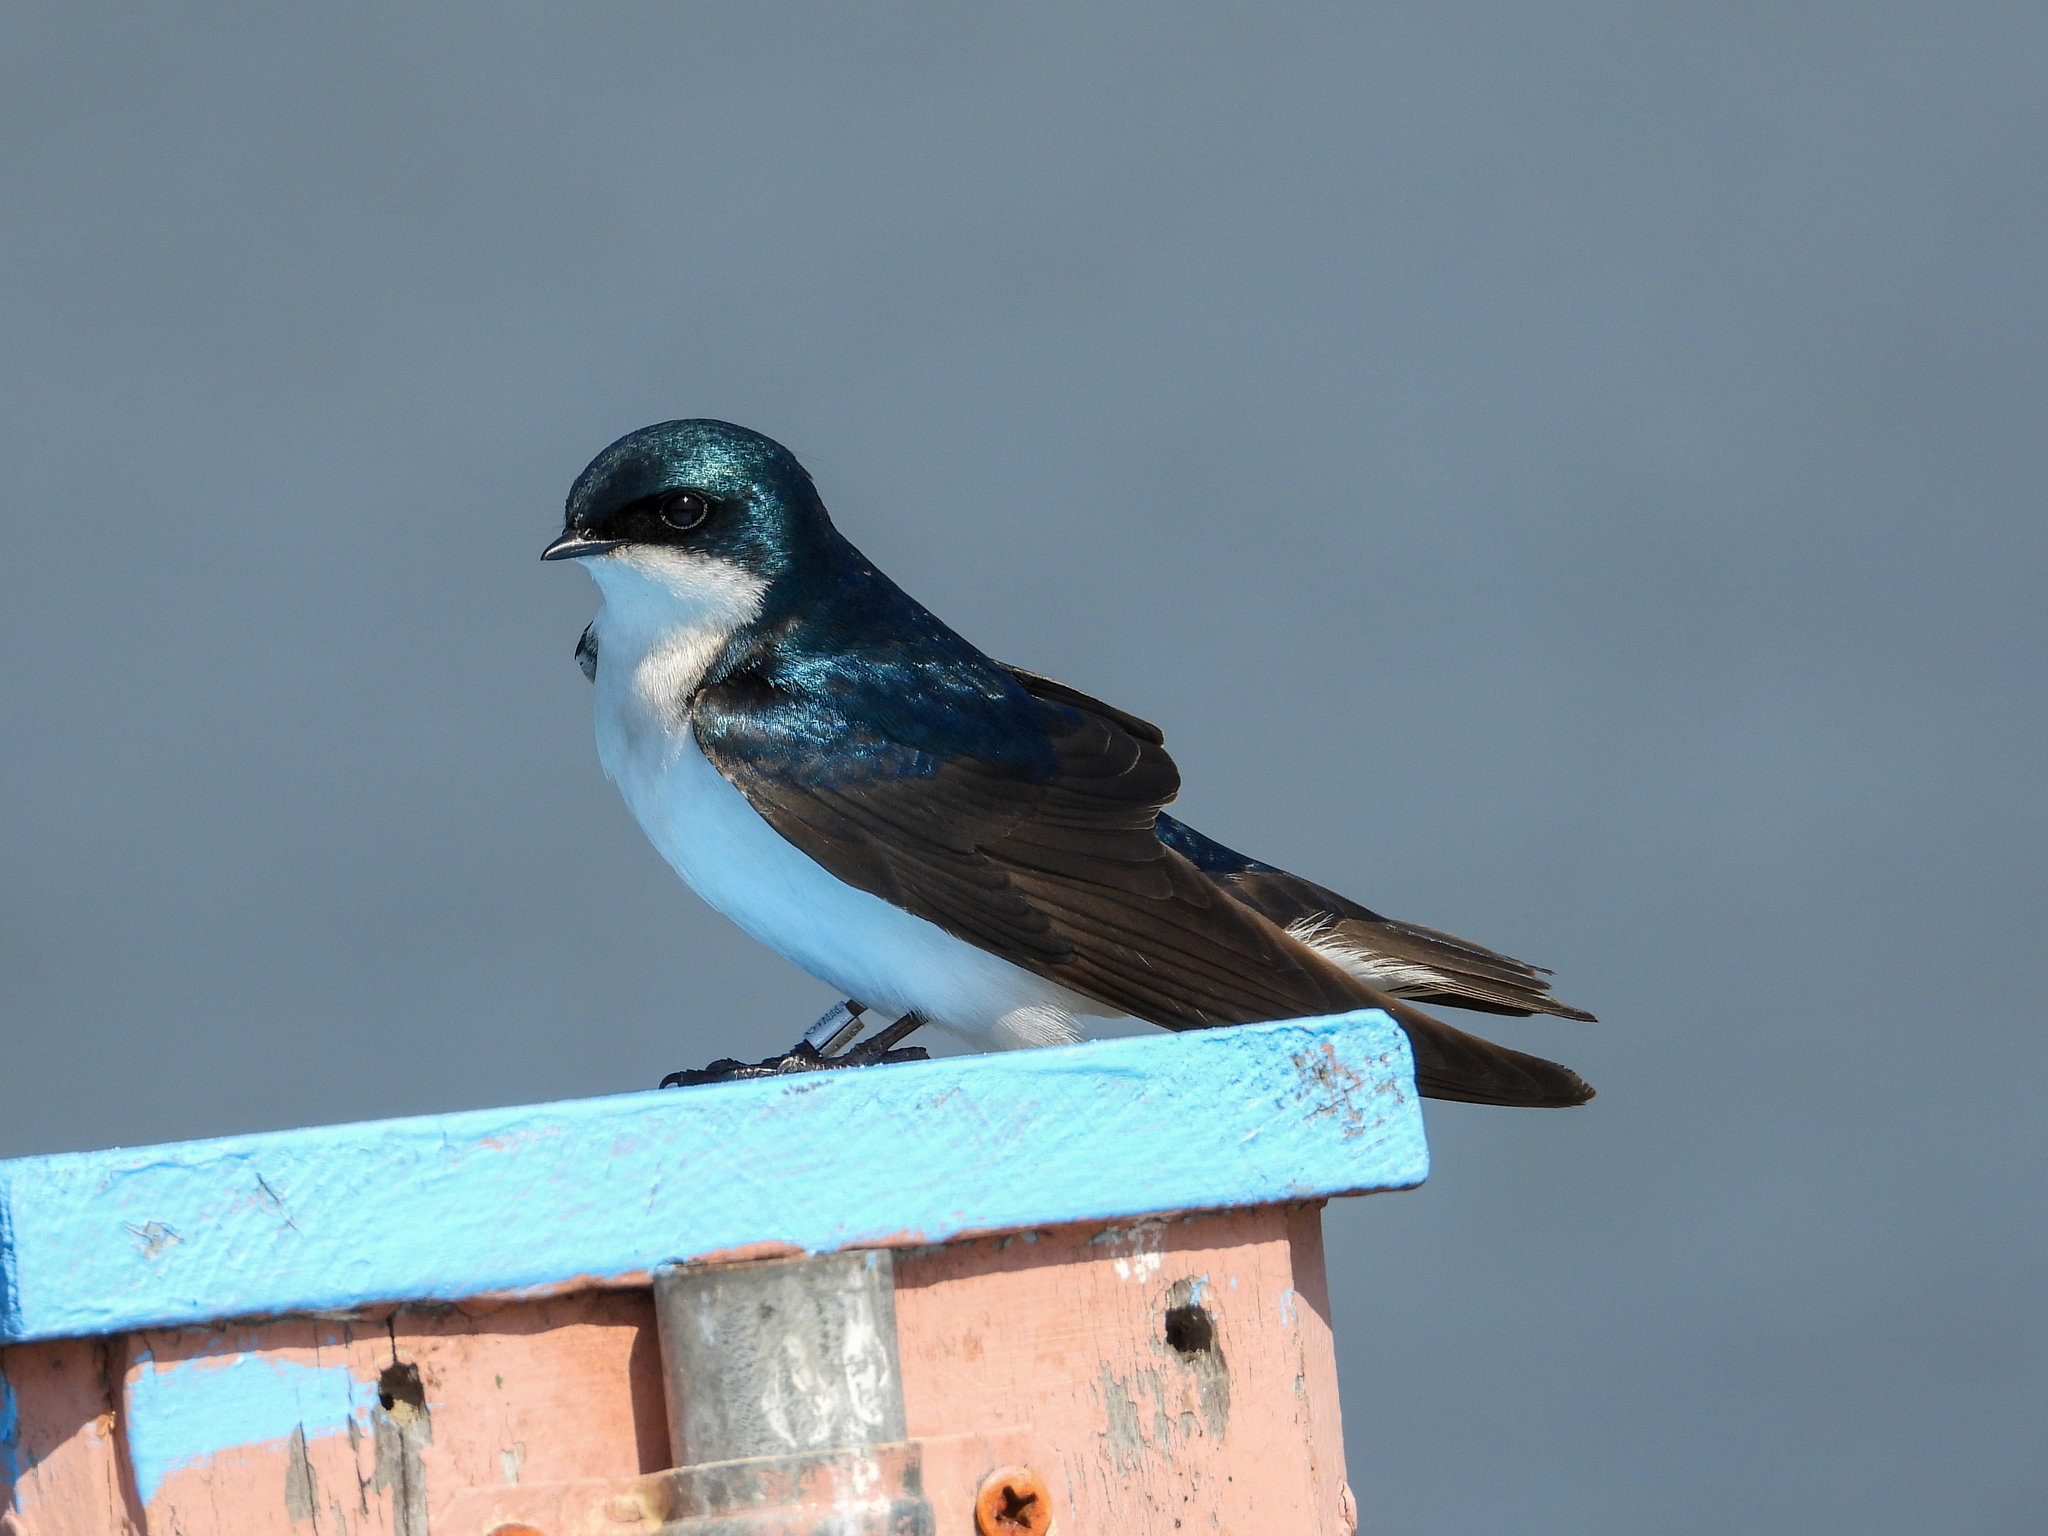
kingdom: Animalia
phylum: Chordata
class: Aves
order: Passeriformes
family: Hirundinidae
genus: Tachycineta
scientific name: Tachycineta bicolor
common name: Tree swallow
